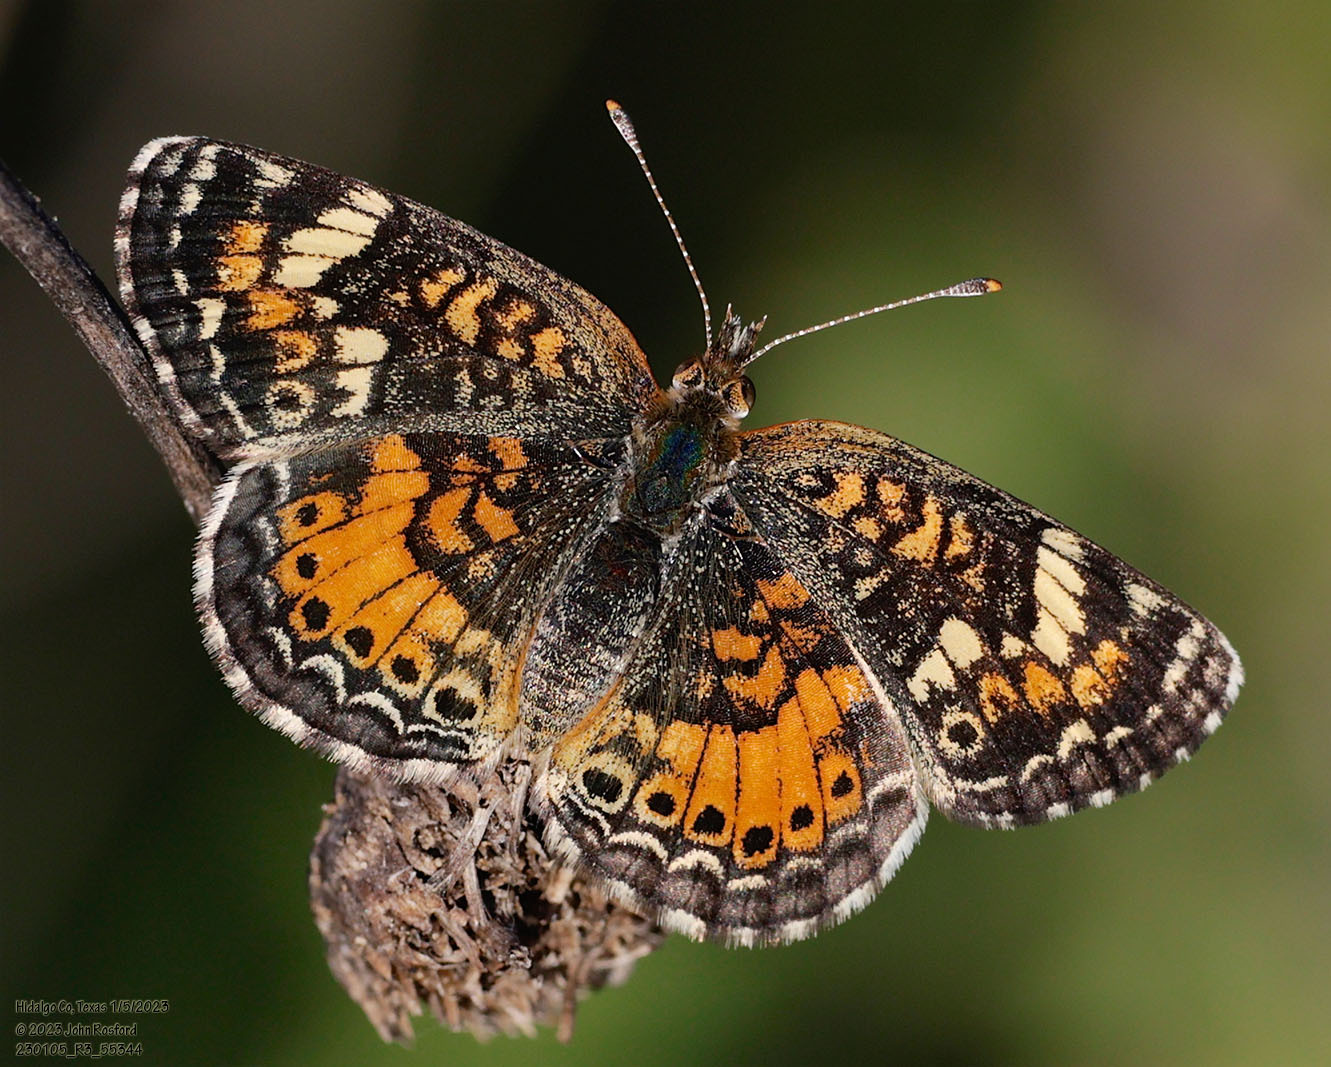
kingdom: Animalia
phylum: Arthropoda
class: Insecta
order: Lepidoptera
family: Nymphalidae
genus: Phyciodes
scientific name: Phyciodes phaon
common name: Phaon crescent
